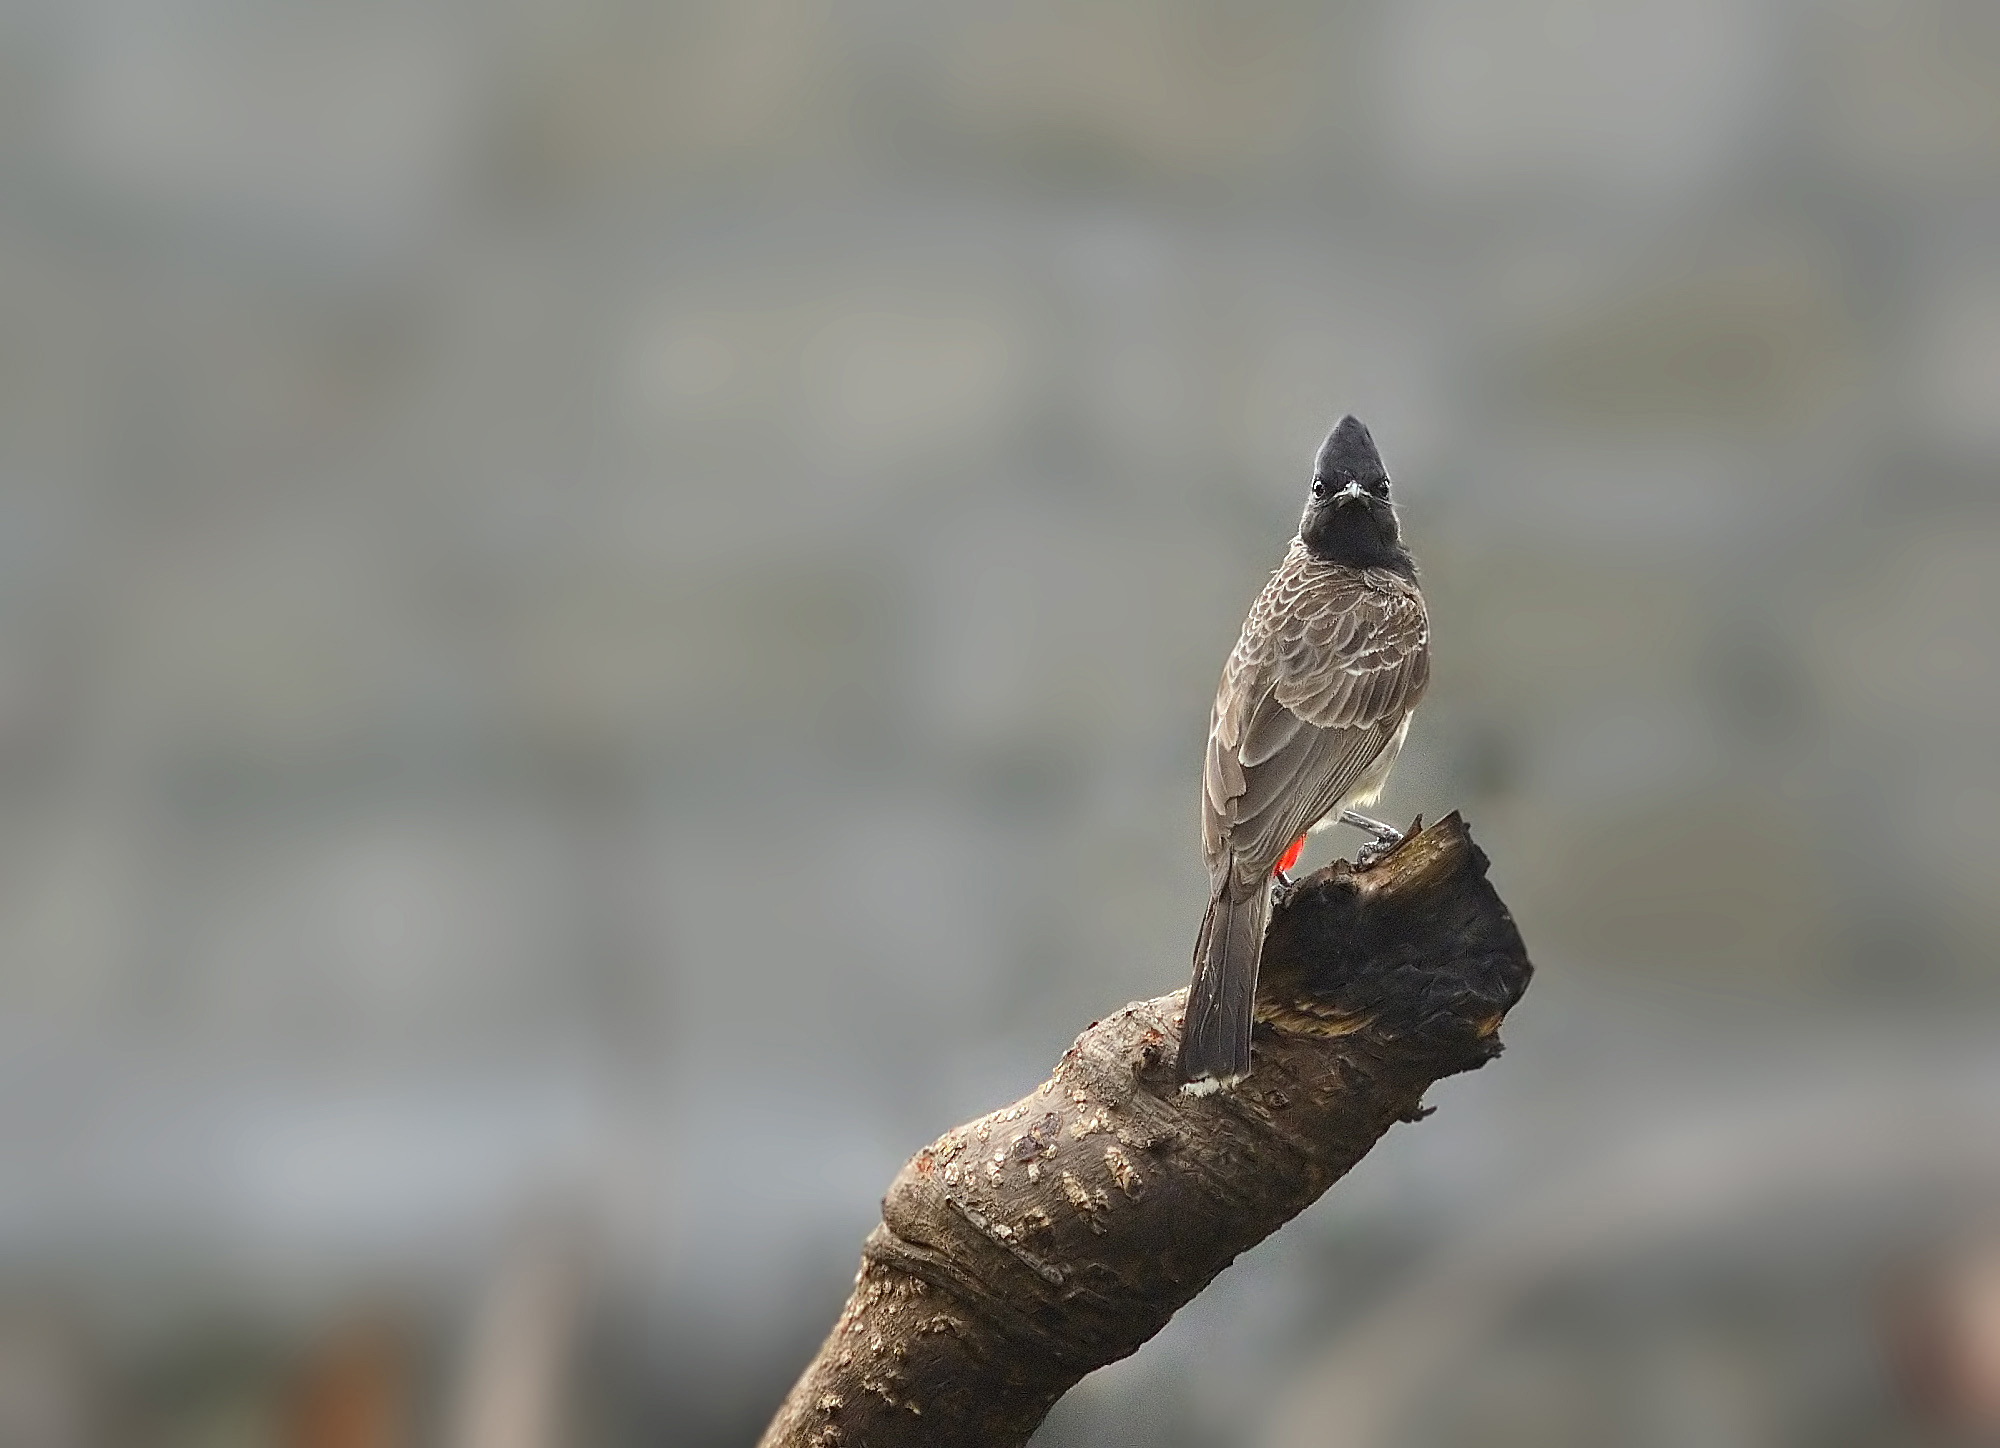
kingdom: Animalia
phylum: Chordata
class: Aves
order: Passeriformes
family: Pycnonotidae
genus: Pycnonotus
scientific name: Pycnonotus cafer
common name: Red-vented bulbul
